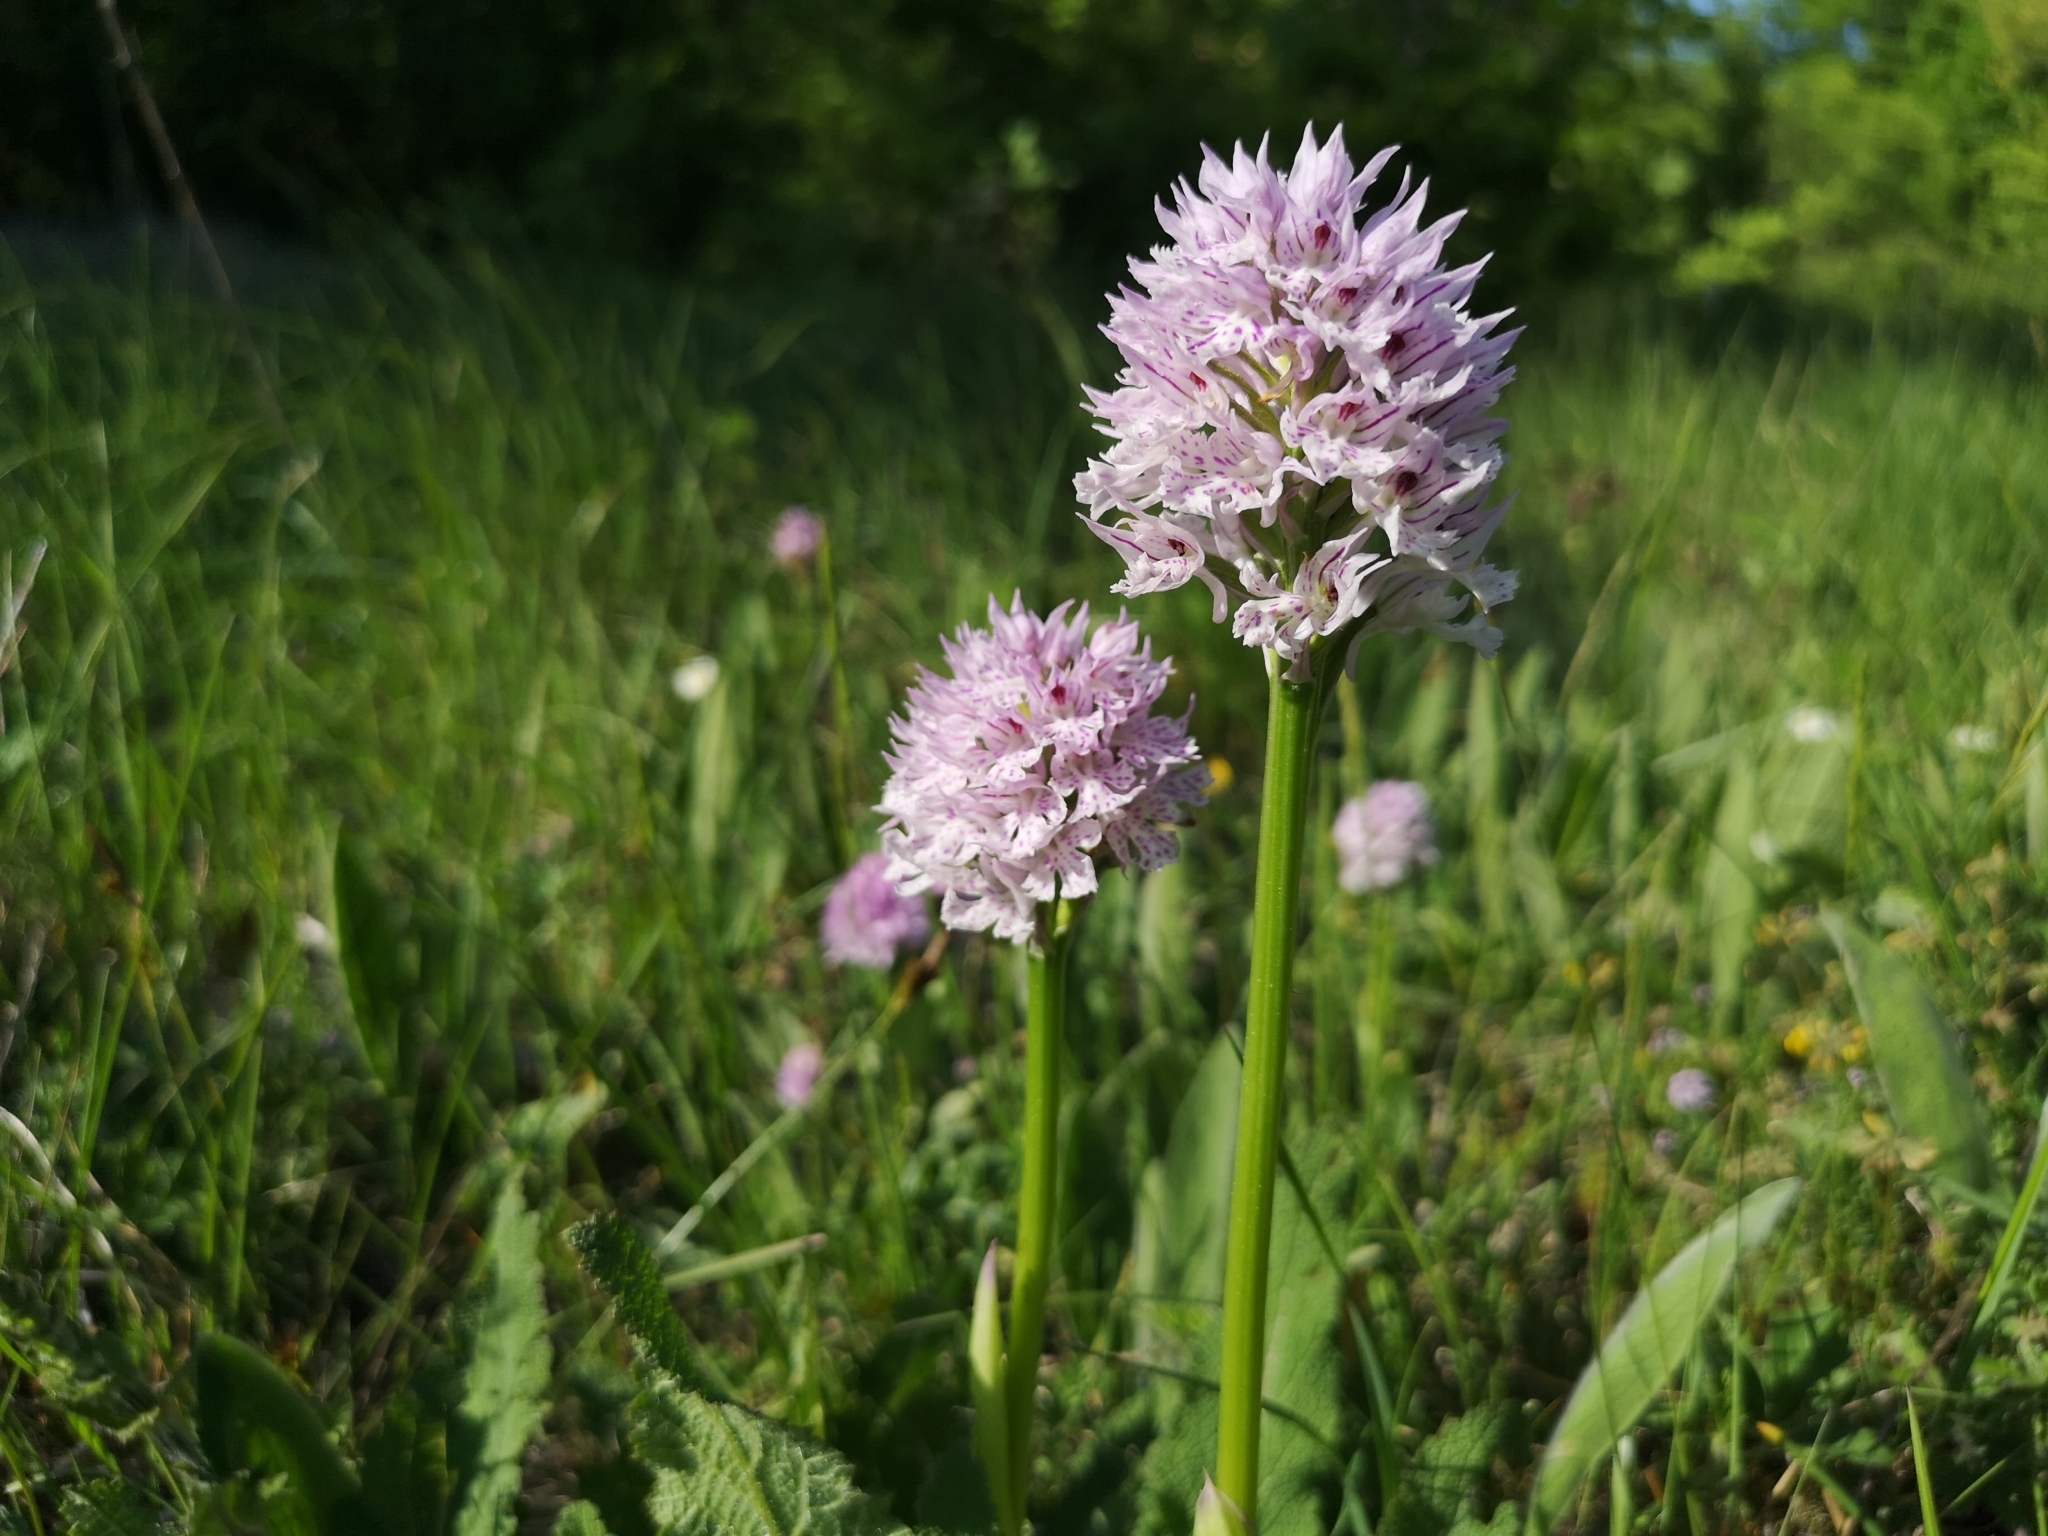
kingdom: Plantae
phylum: Tracheophyta
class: Liliopsida
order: Asparagales
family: Orchidaceae
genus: Neotinea
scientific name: Neotinea tridentata
